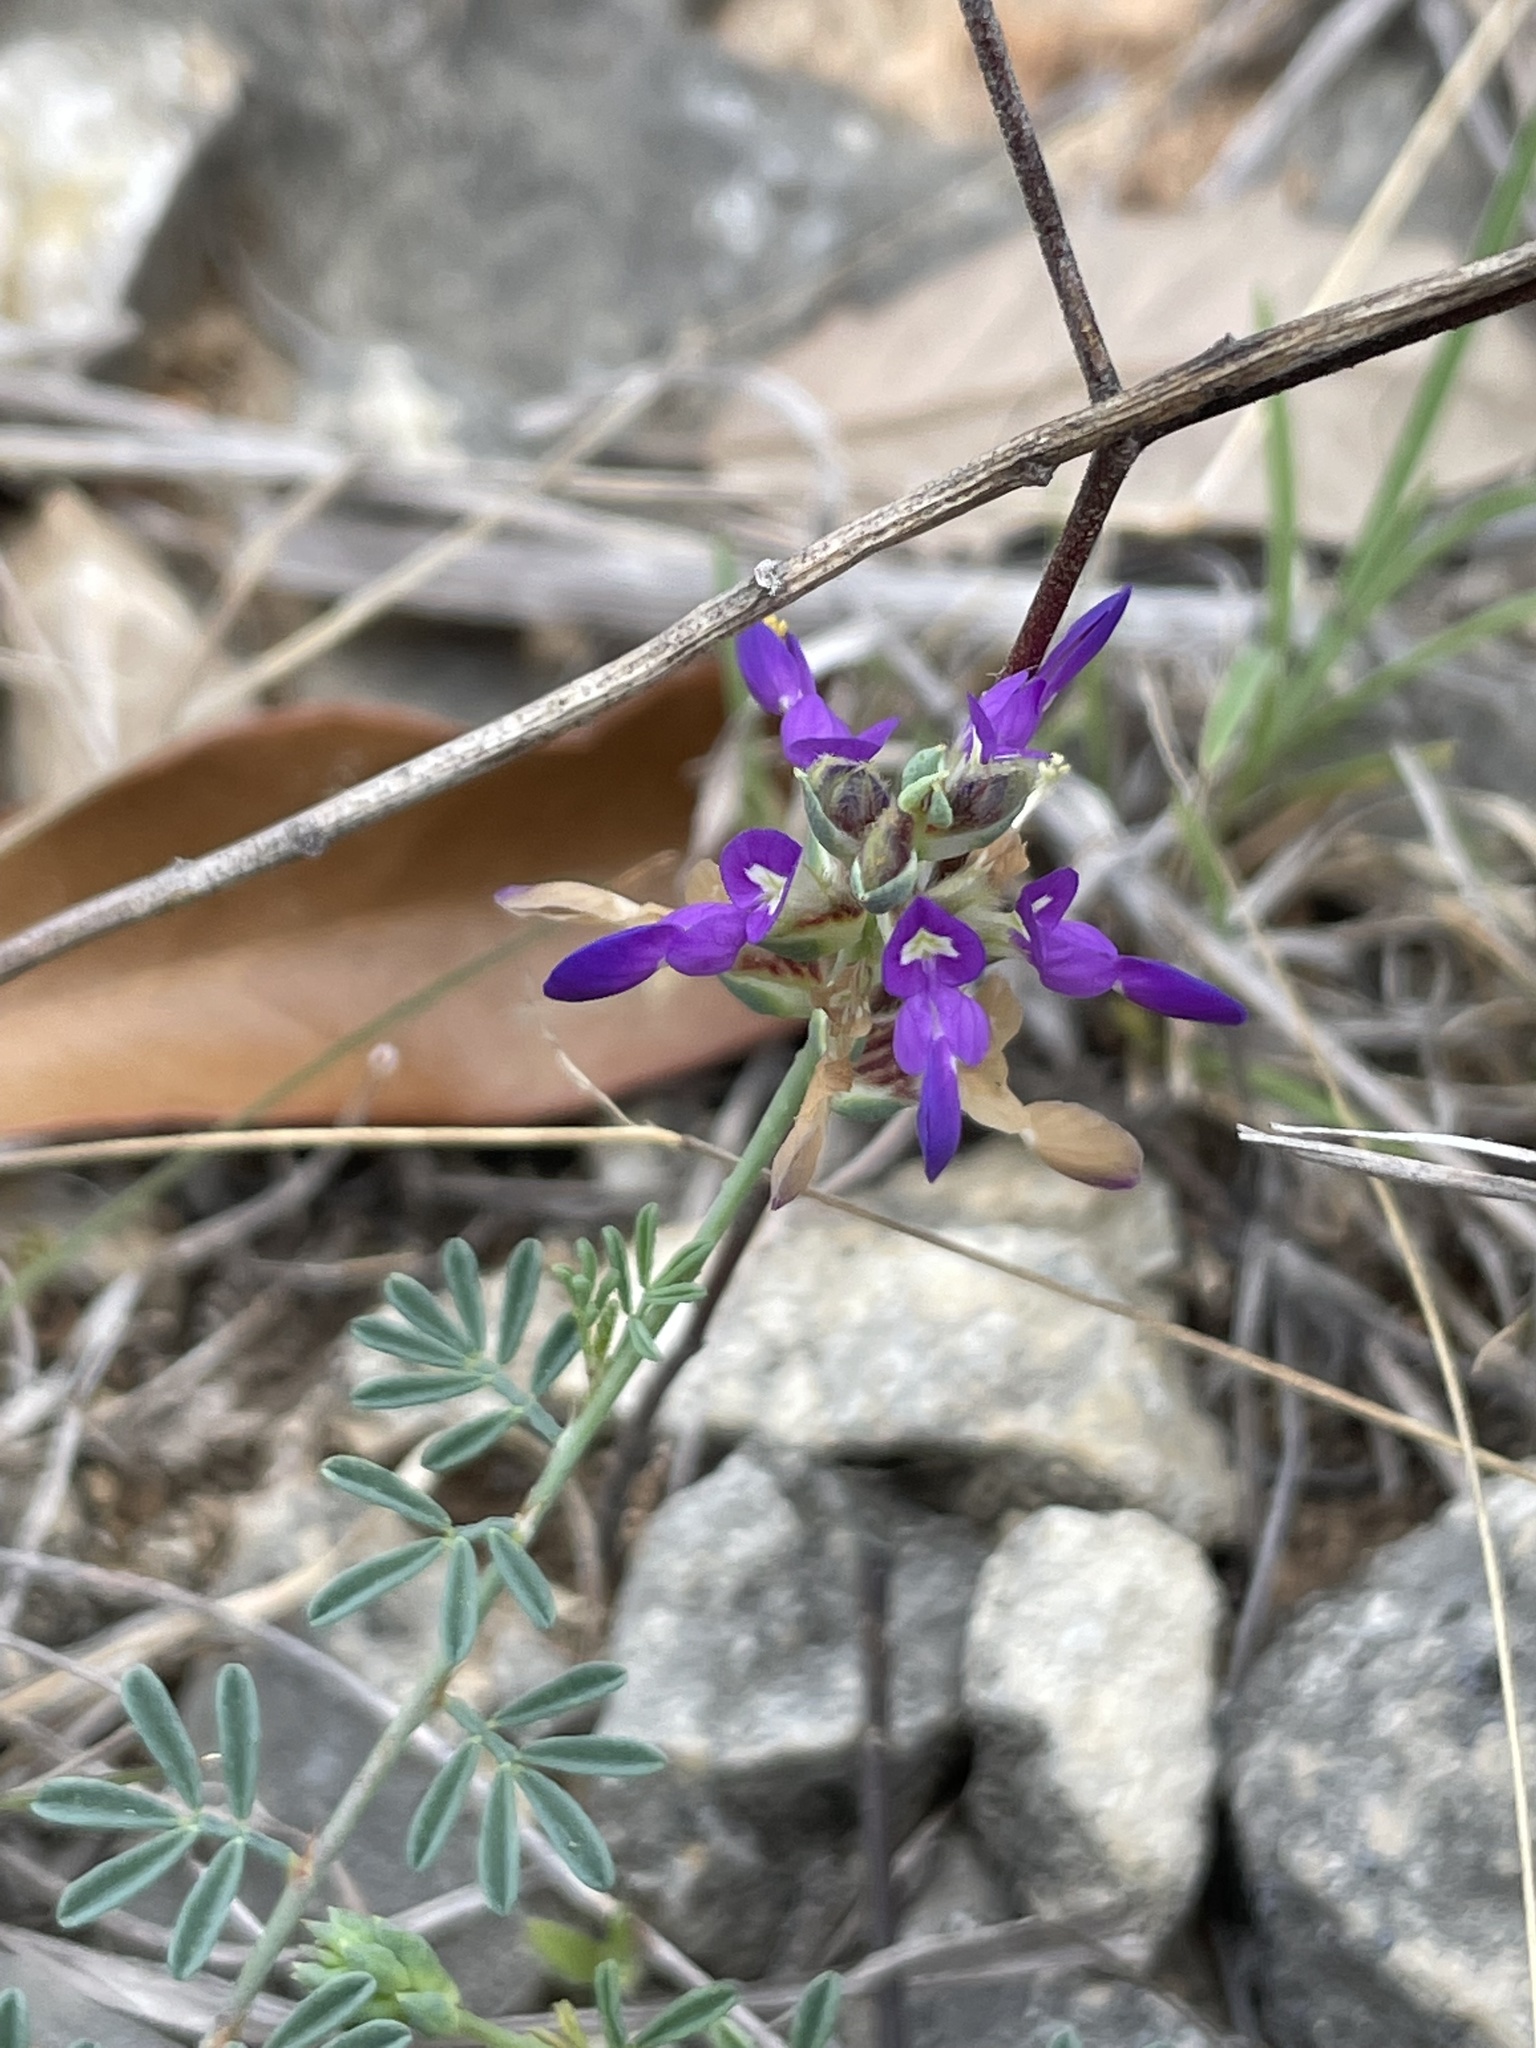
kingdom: Plantae
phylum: Tracheophyta
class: Magnoliopsida
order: Fabales
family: Fabaceae
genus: Dalea
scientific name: Dalea pogonathera
